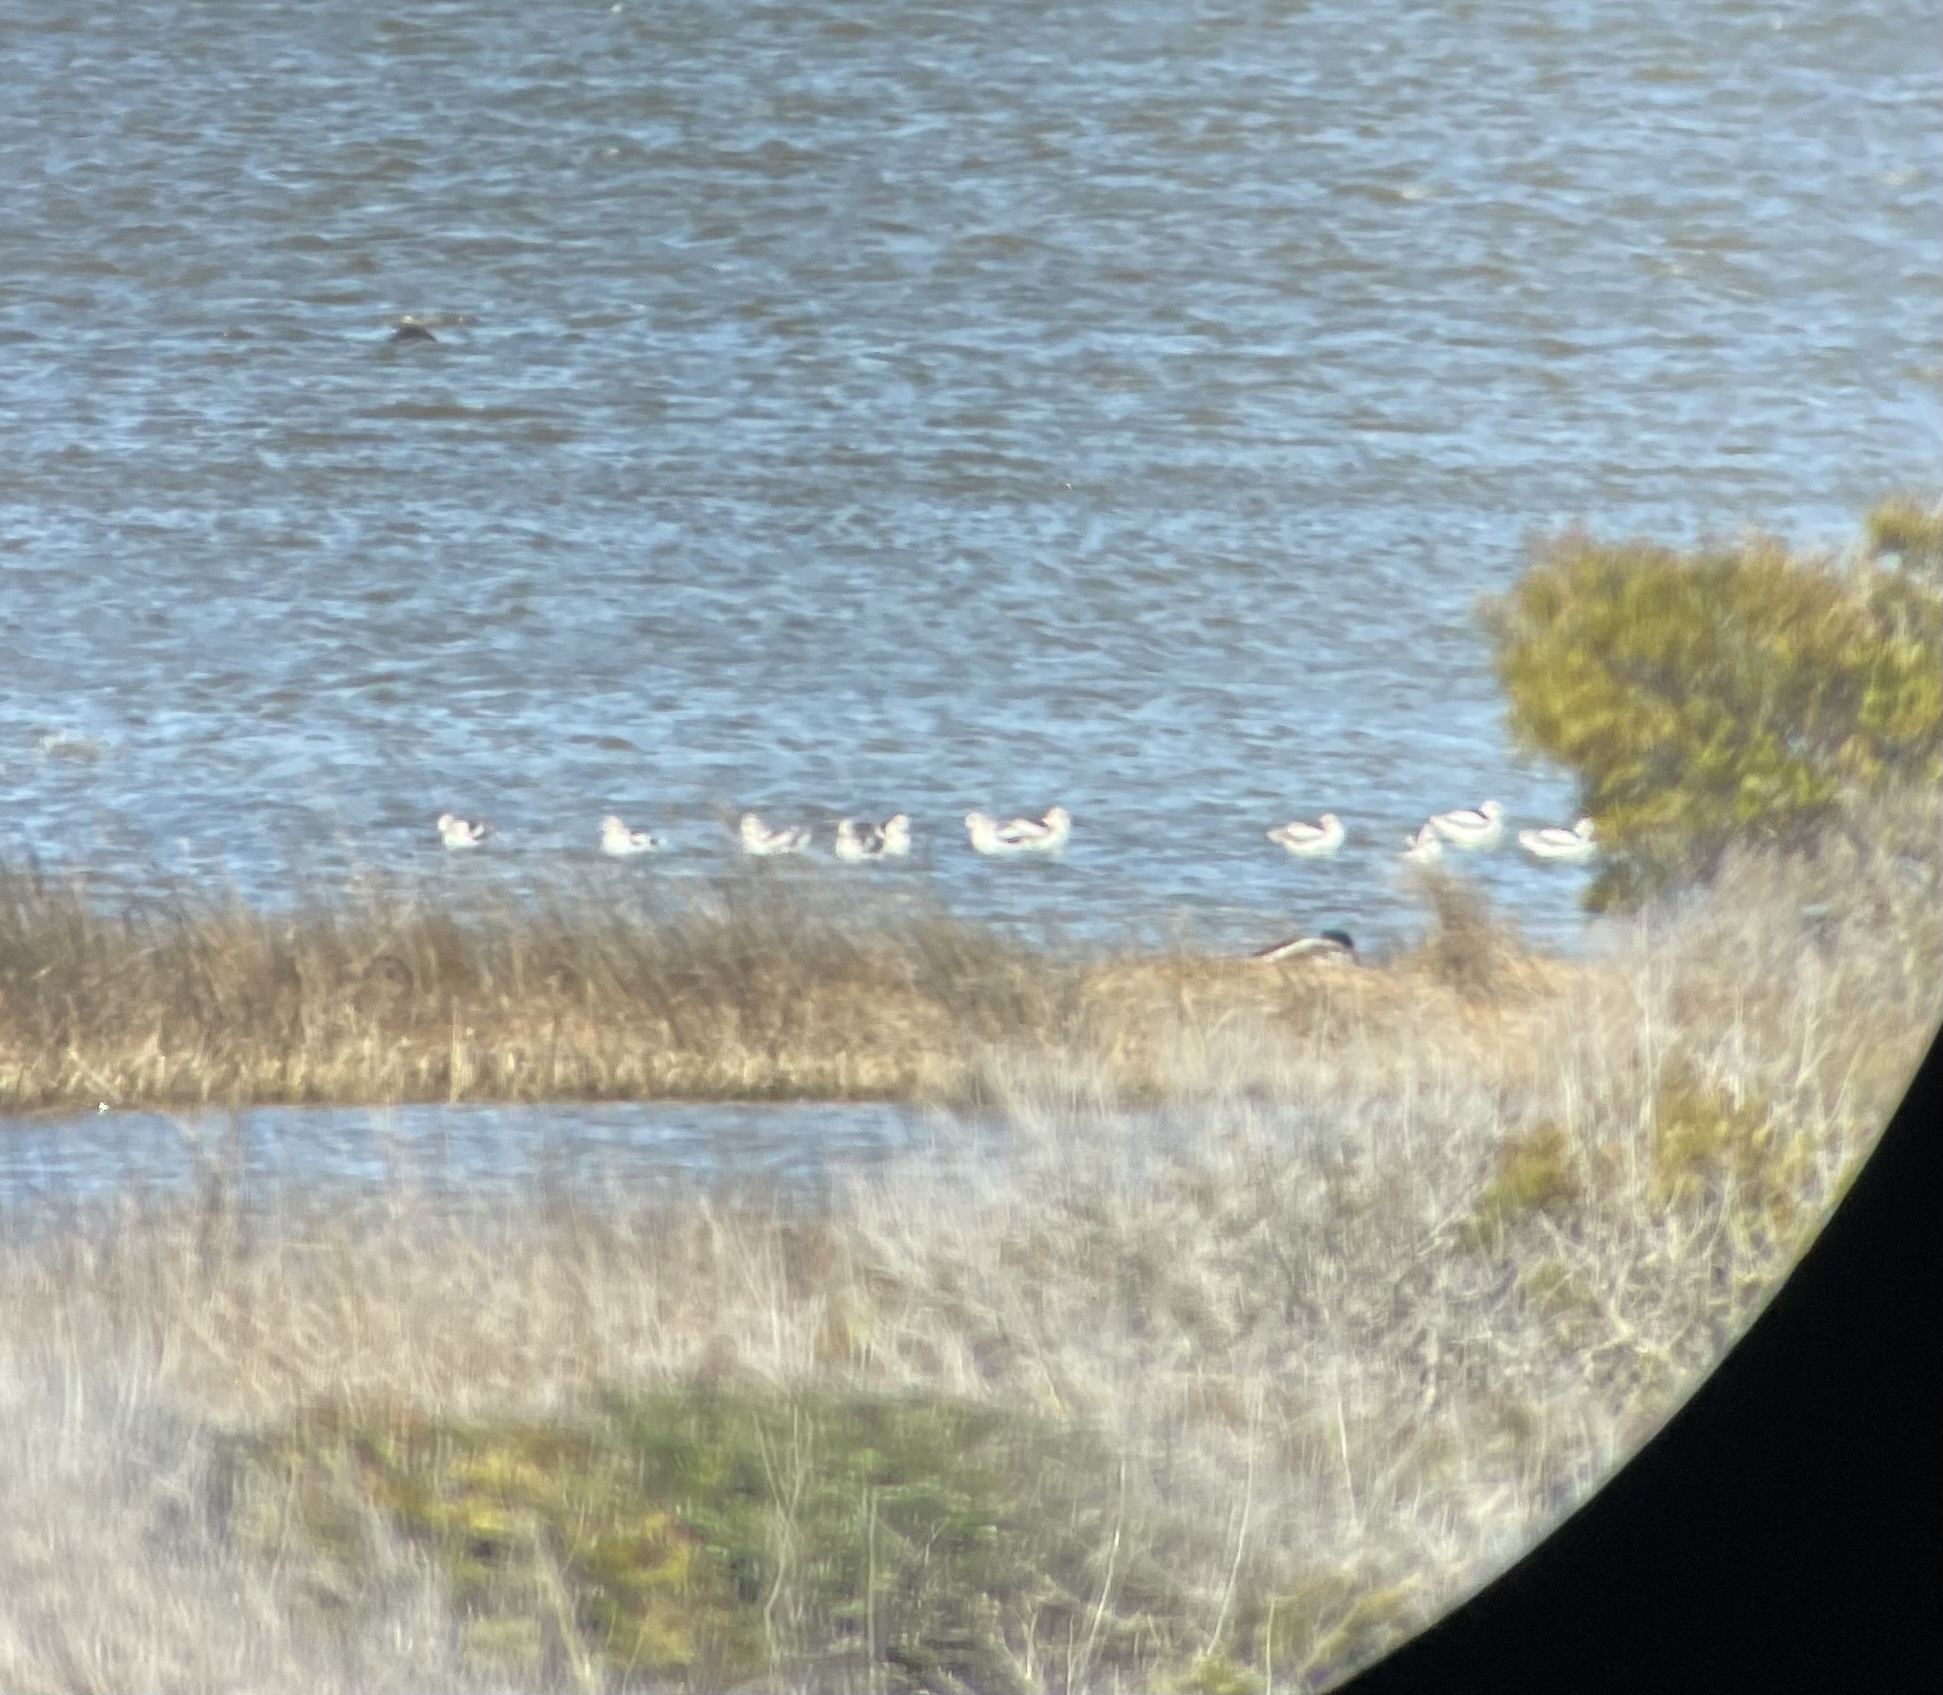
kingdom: Animalia
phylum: Chordata
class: Aves
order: Charadriiformes
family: Recurvirostridae
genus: Recurvirostra
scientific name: Recurvirostra americana
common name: American avocet
